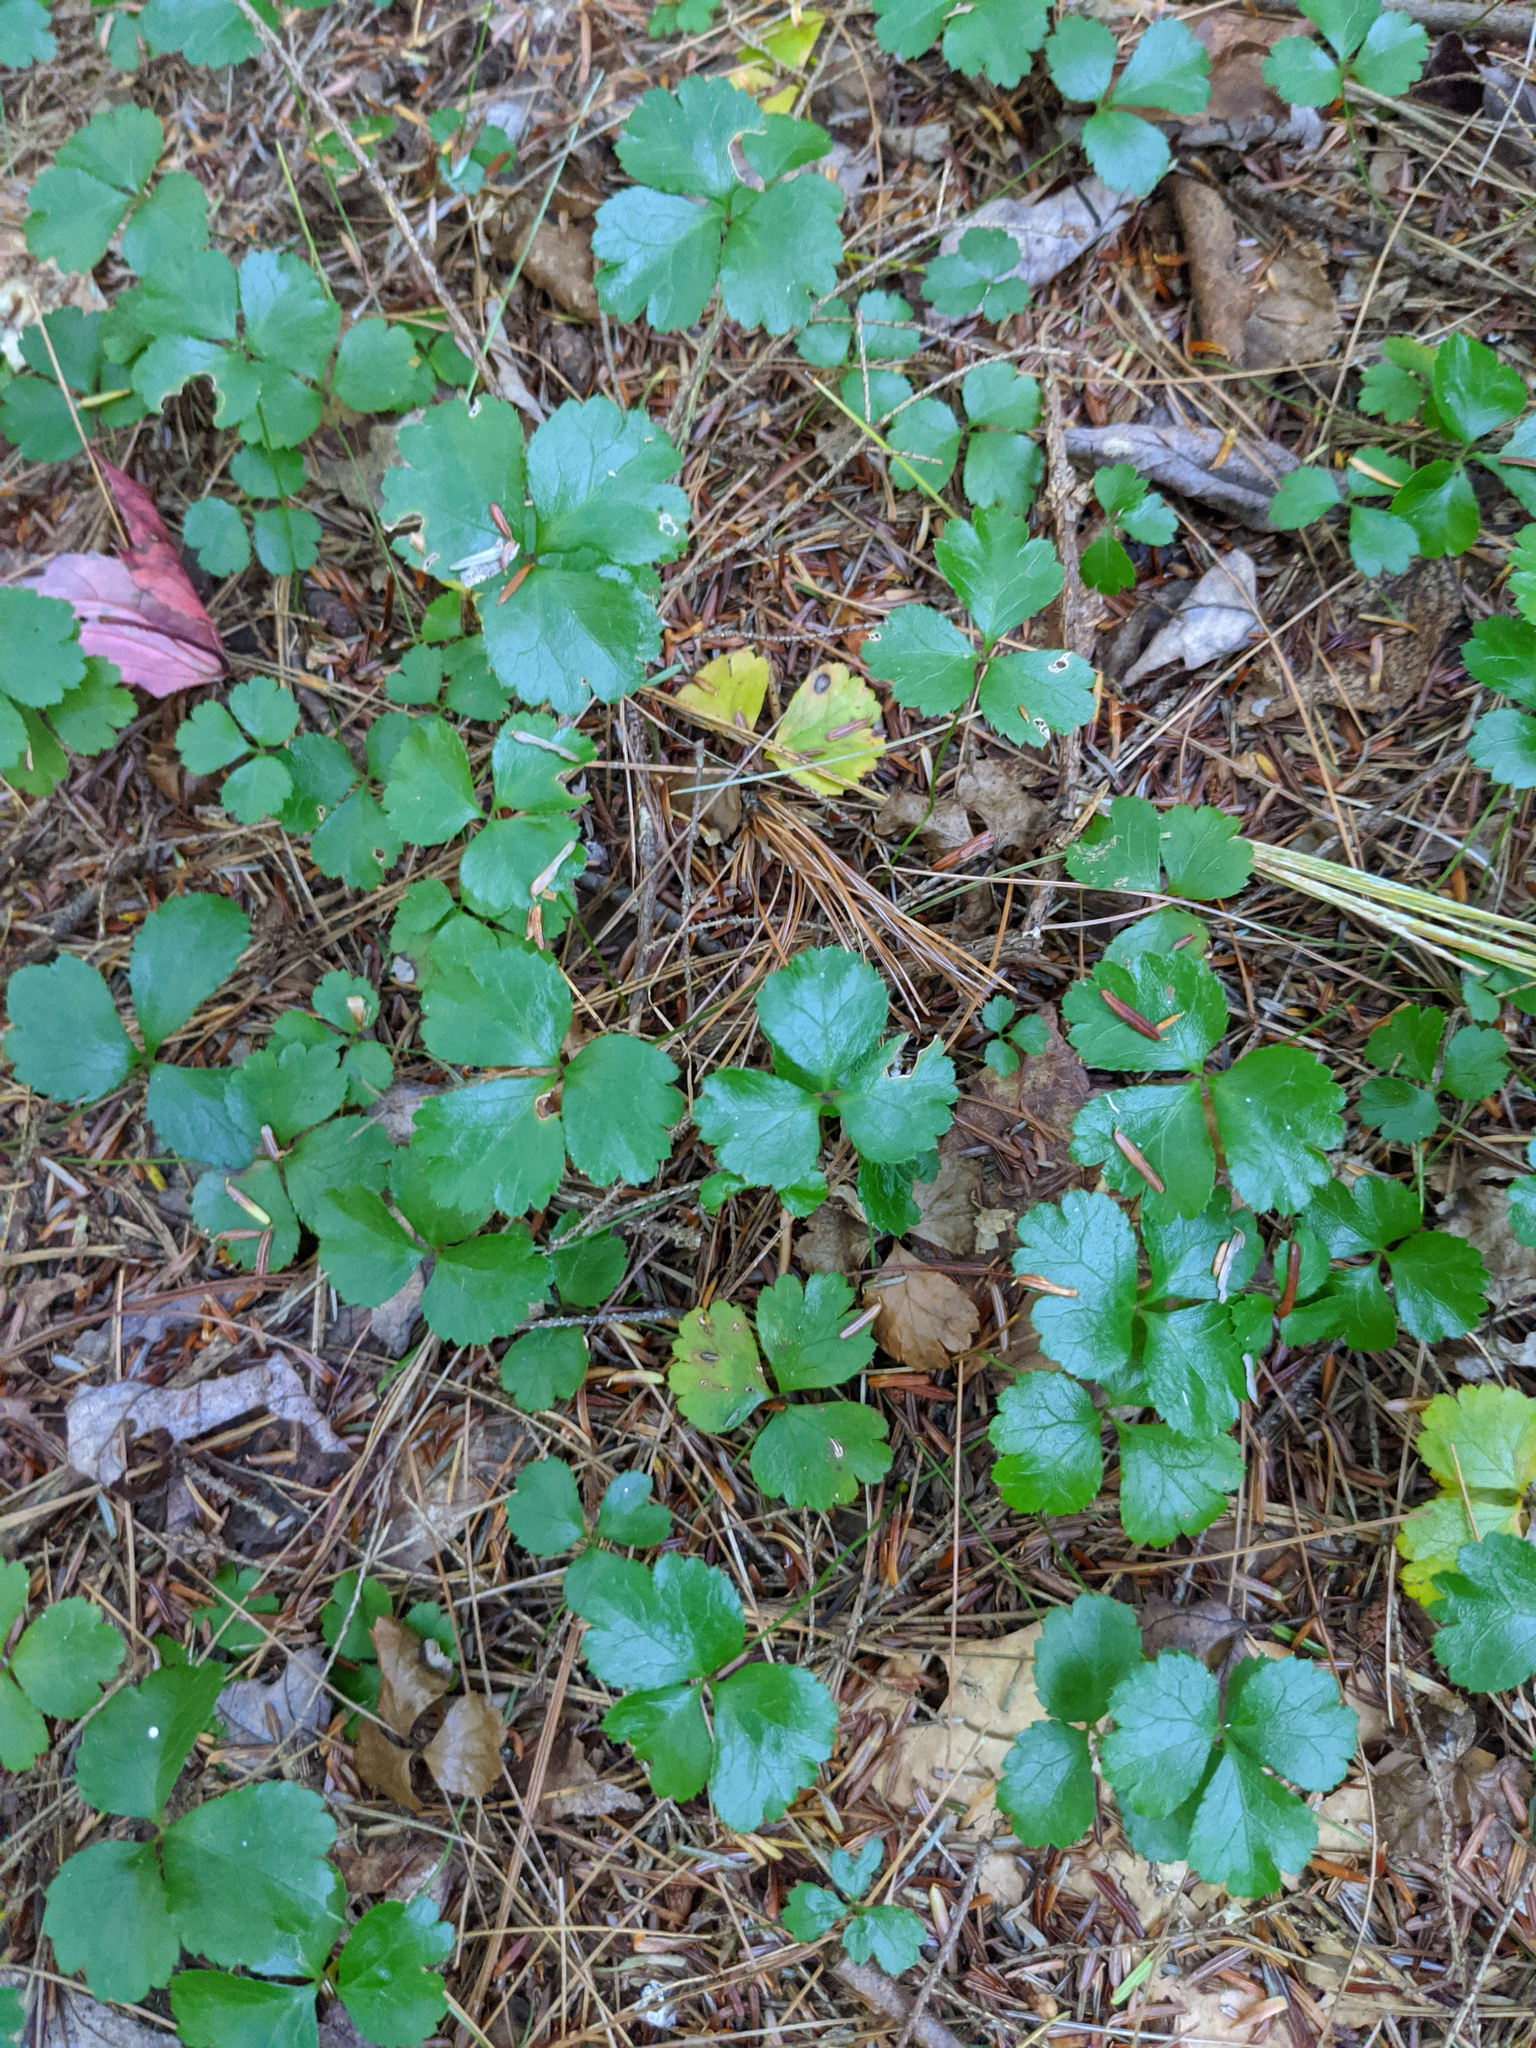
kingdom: Plantae
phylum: Tracheophyta
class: Magnoliopsida
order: Ranunculales
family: Ranunculaceae
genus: Coptis
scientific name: Coptis trifolia
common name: Canker-root
